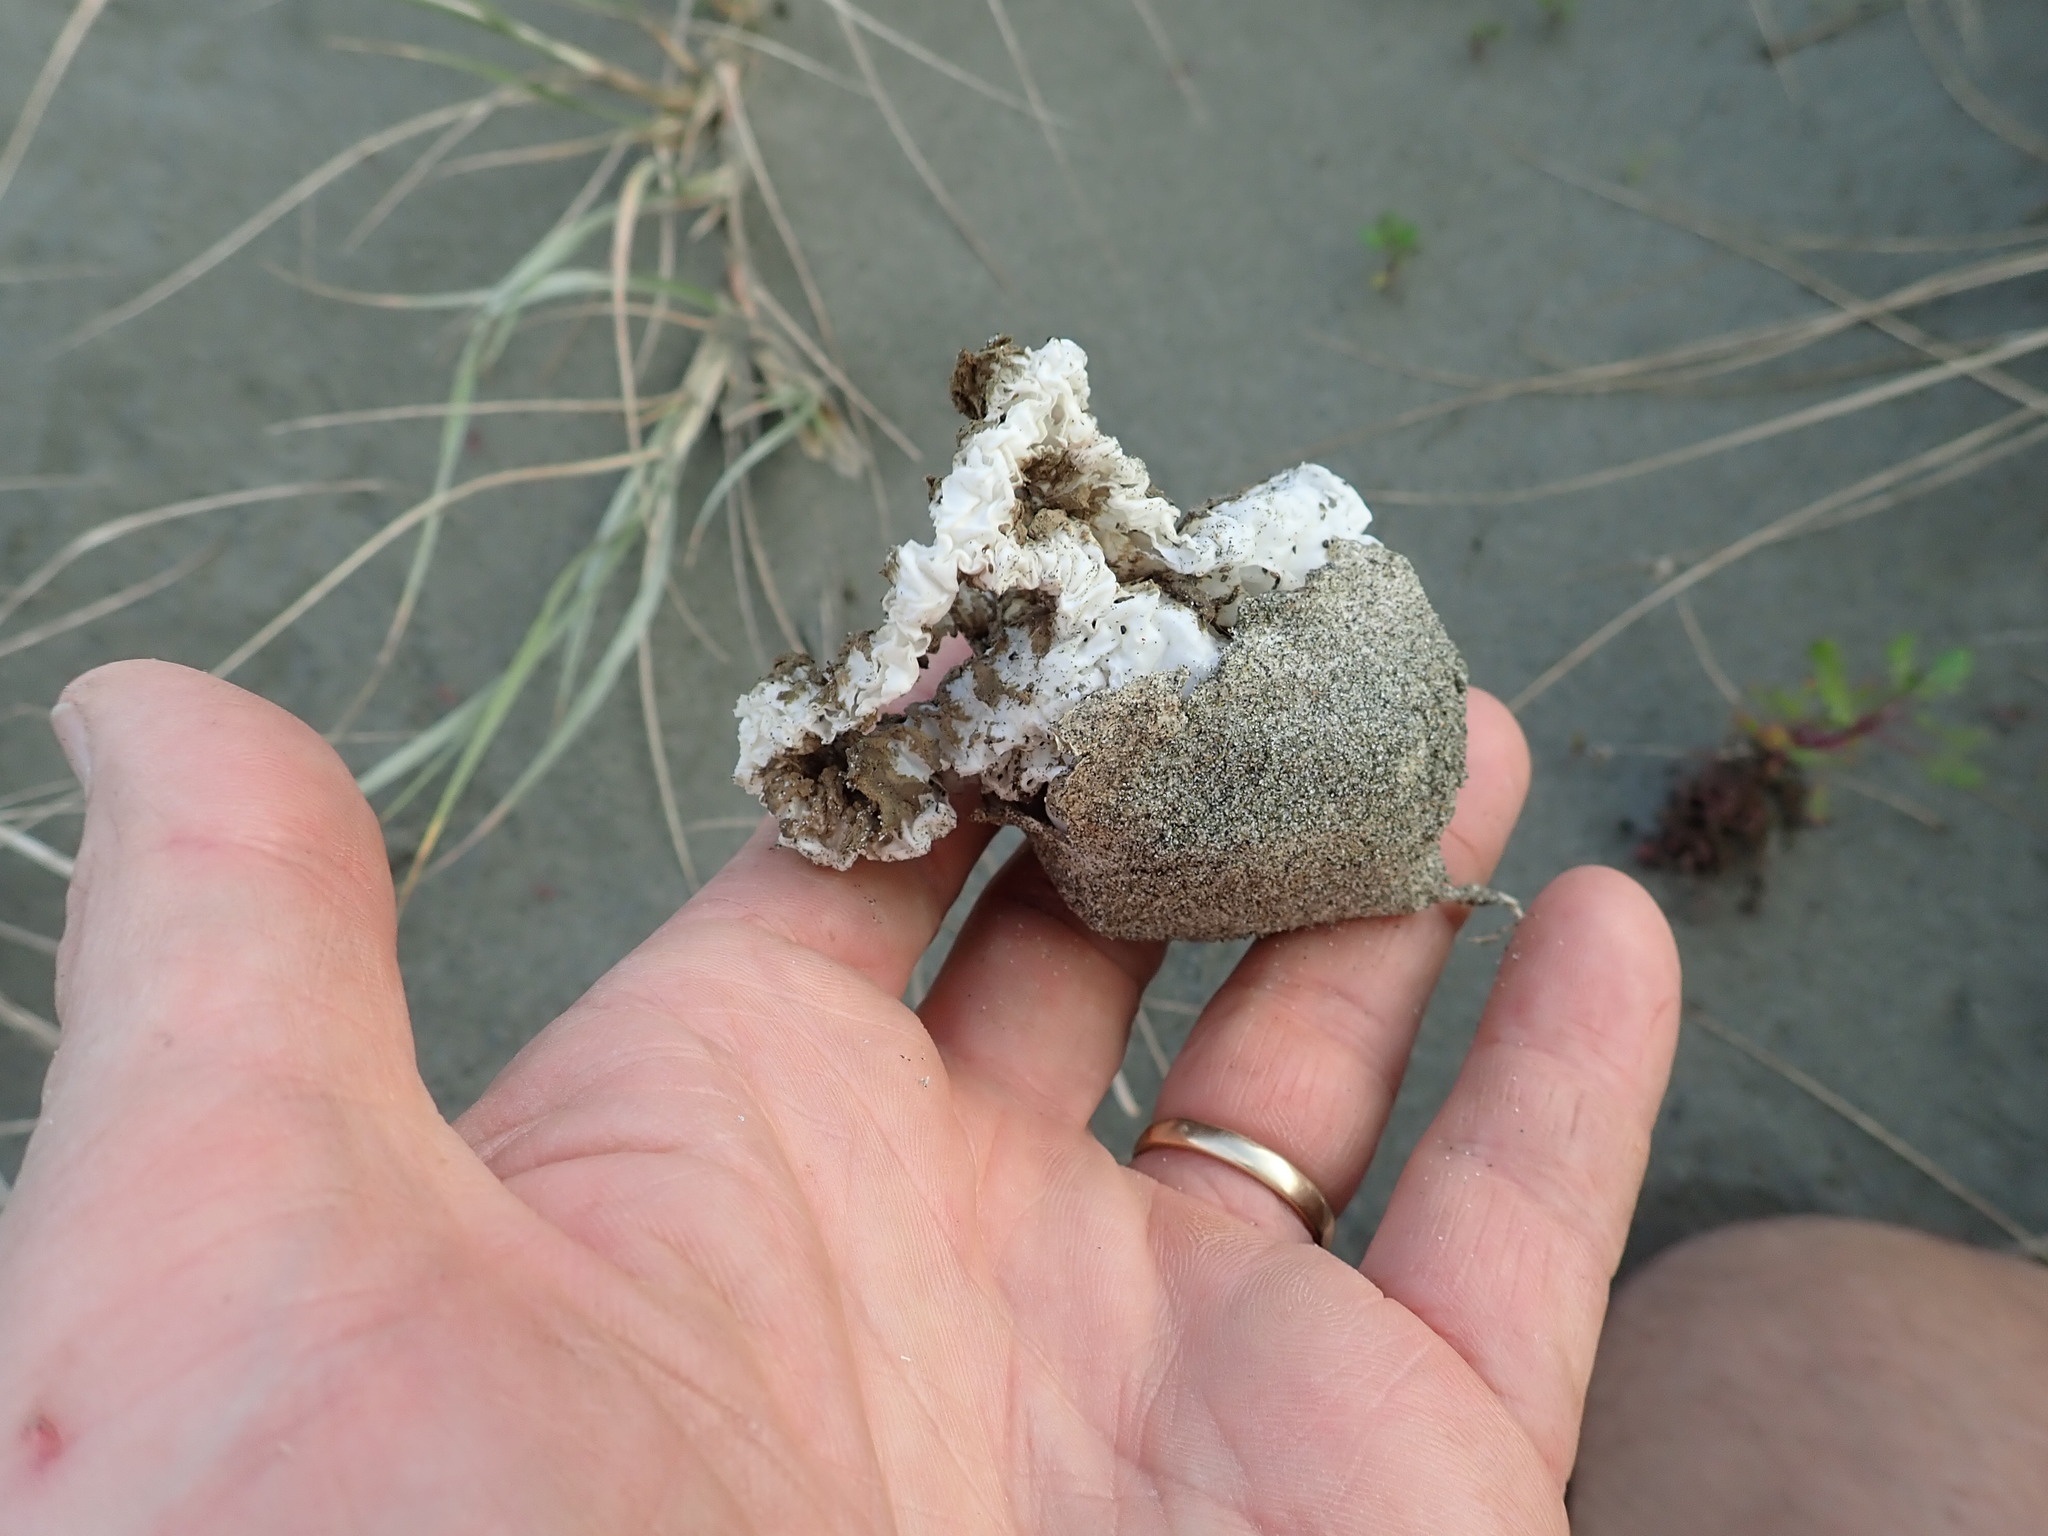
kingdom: Fungi
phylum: Basidiomycota
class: Agaricomycetes
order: Phallales
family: Phallaceae
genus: Ileodictyon
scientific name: Ileodictyon cibarium
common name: Basket fungus
